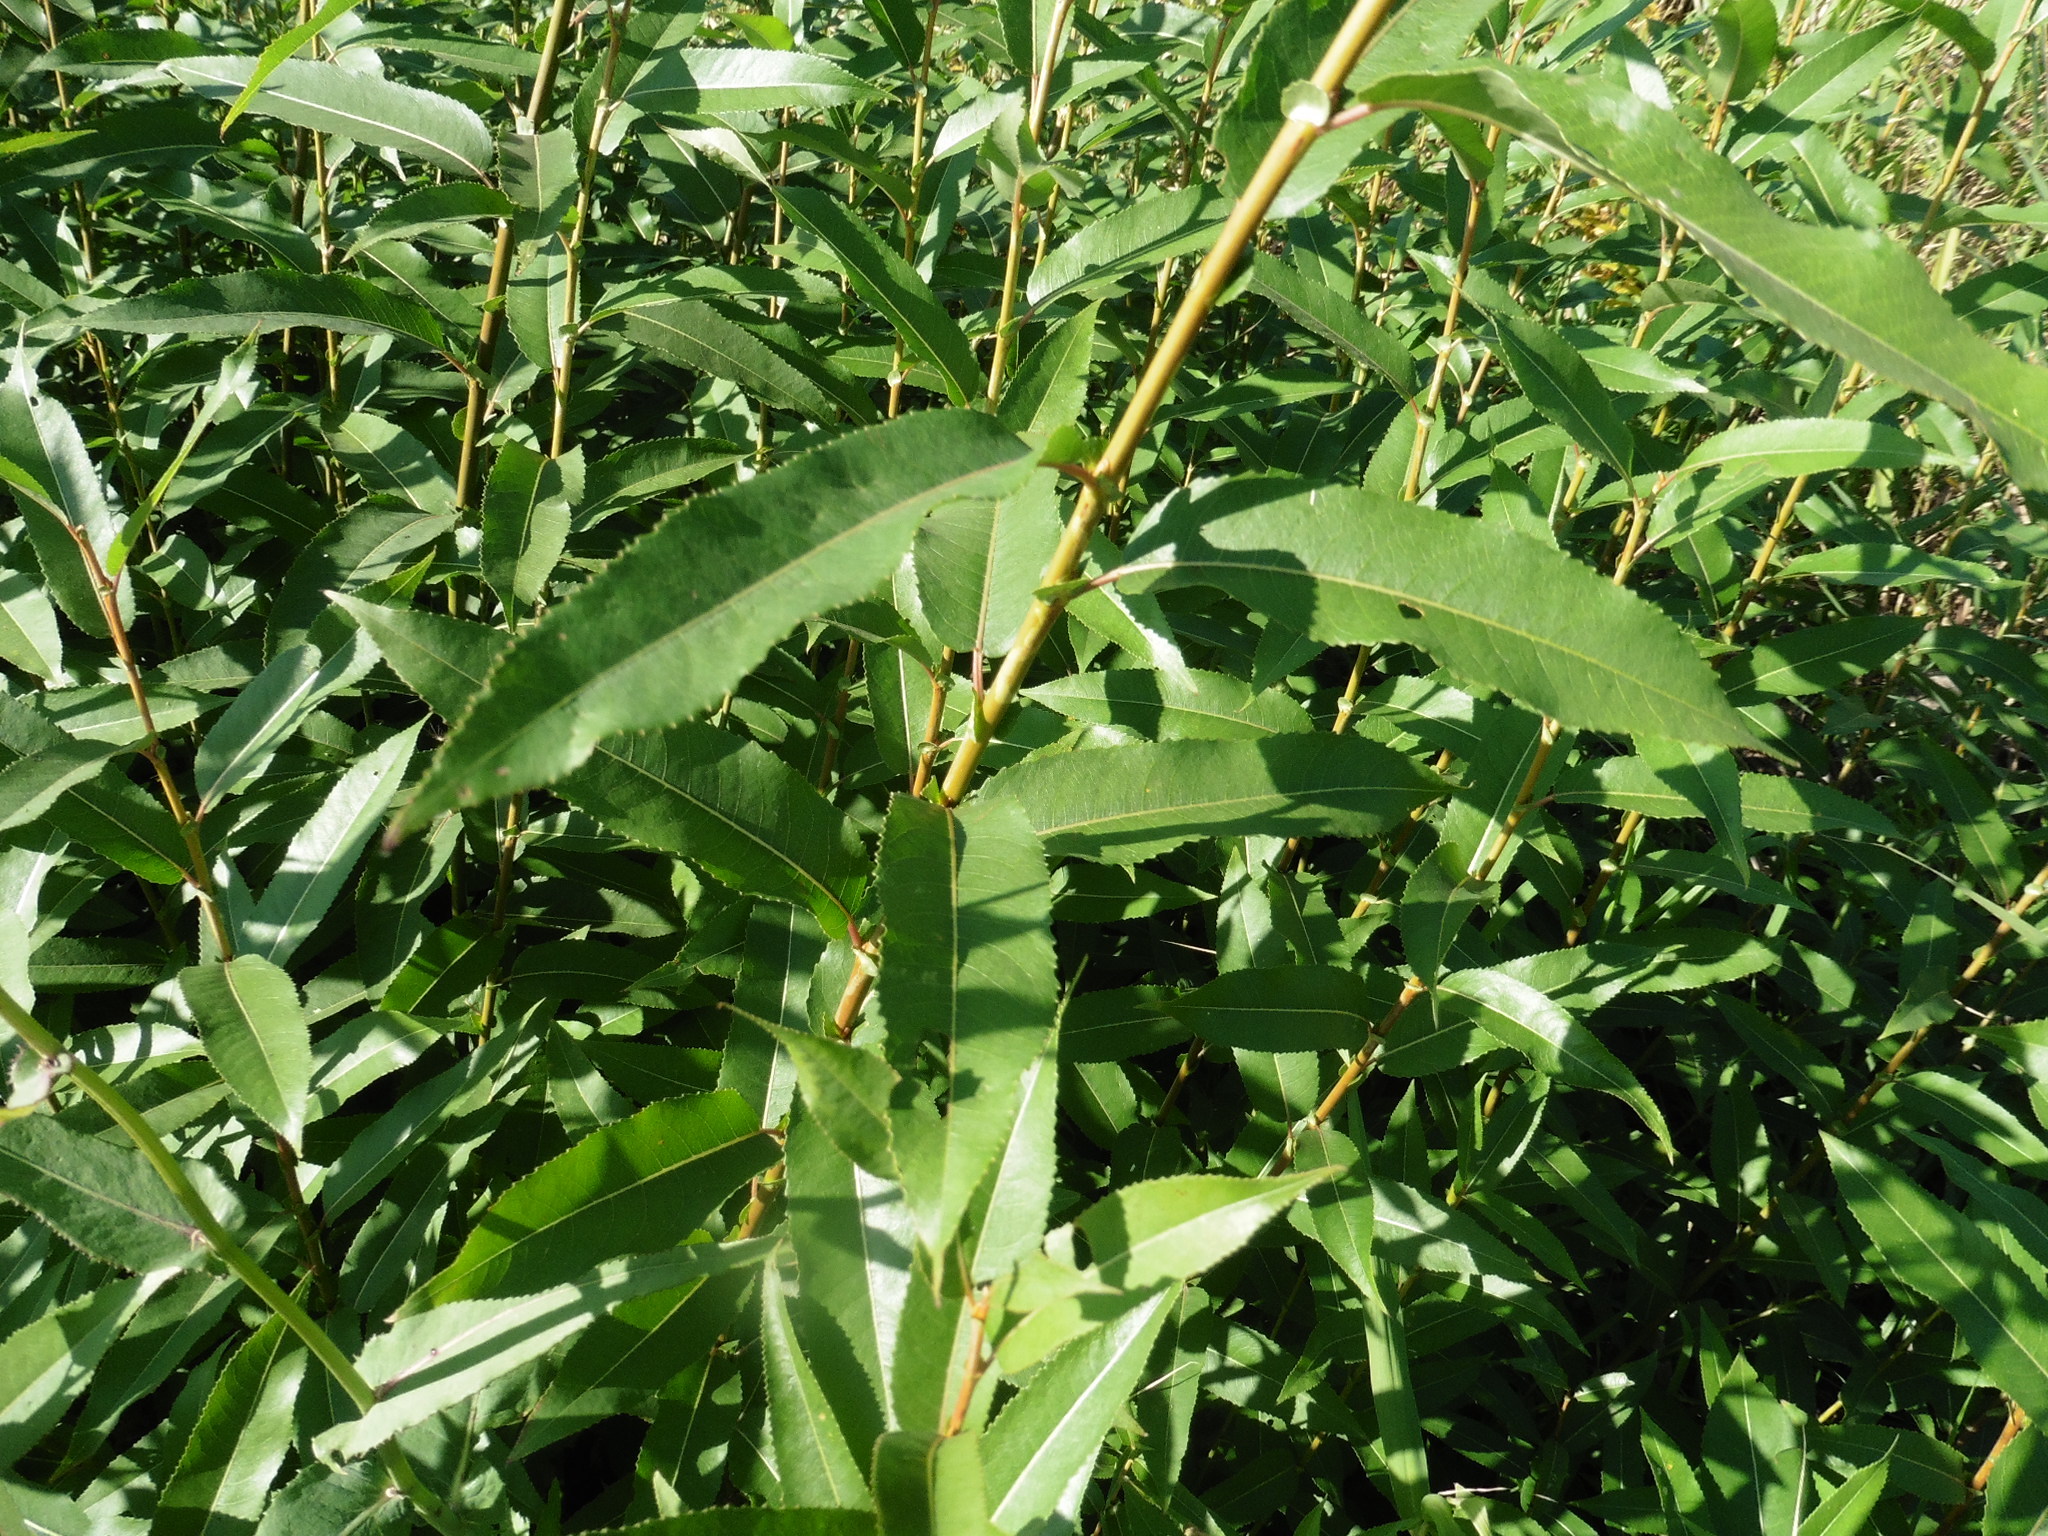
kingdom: Plantae
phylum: Tracheophyta
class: Magnoliopsida
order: Malpighiales
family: Salicaceae
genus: Salix
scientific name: Salix triandra
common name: Almond willow
